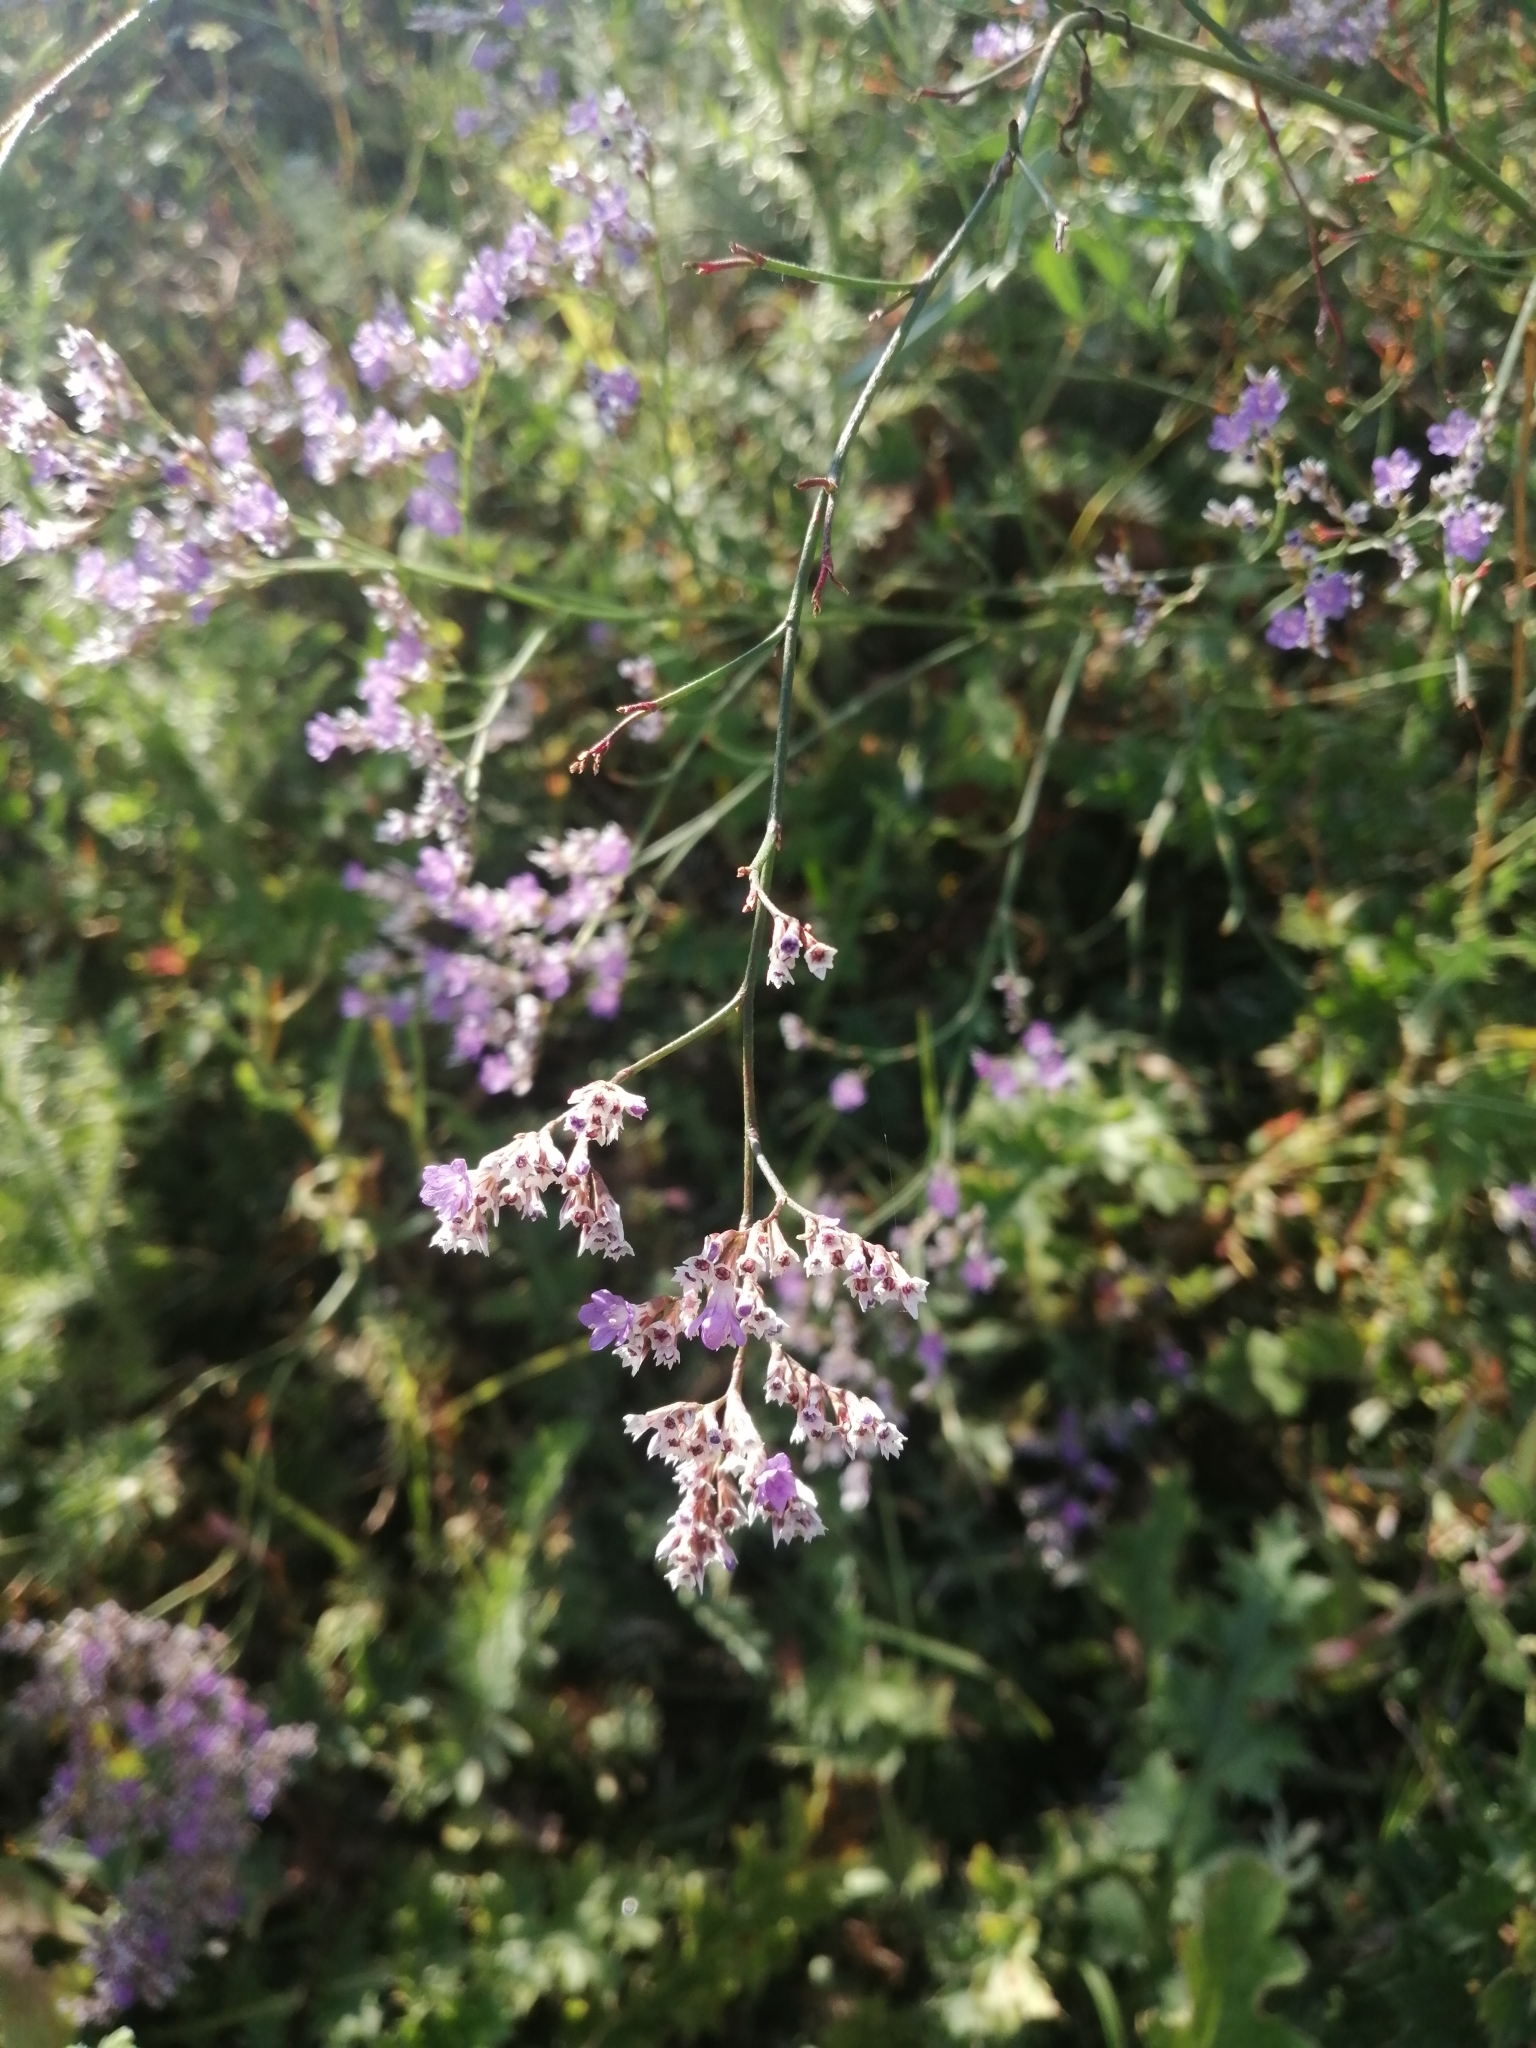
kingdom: Plantae
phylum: Tracheophyta
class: Magnoliopsida
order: Caryophyllales
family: Plumbaginaceae
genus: Limonium
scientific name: Limonium gmelini
